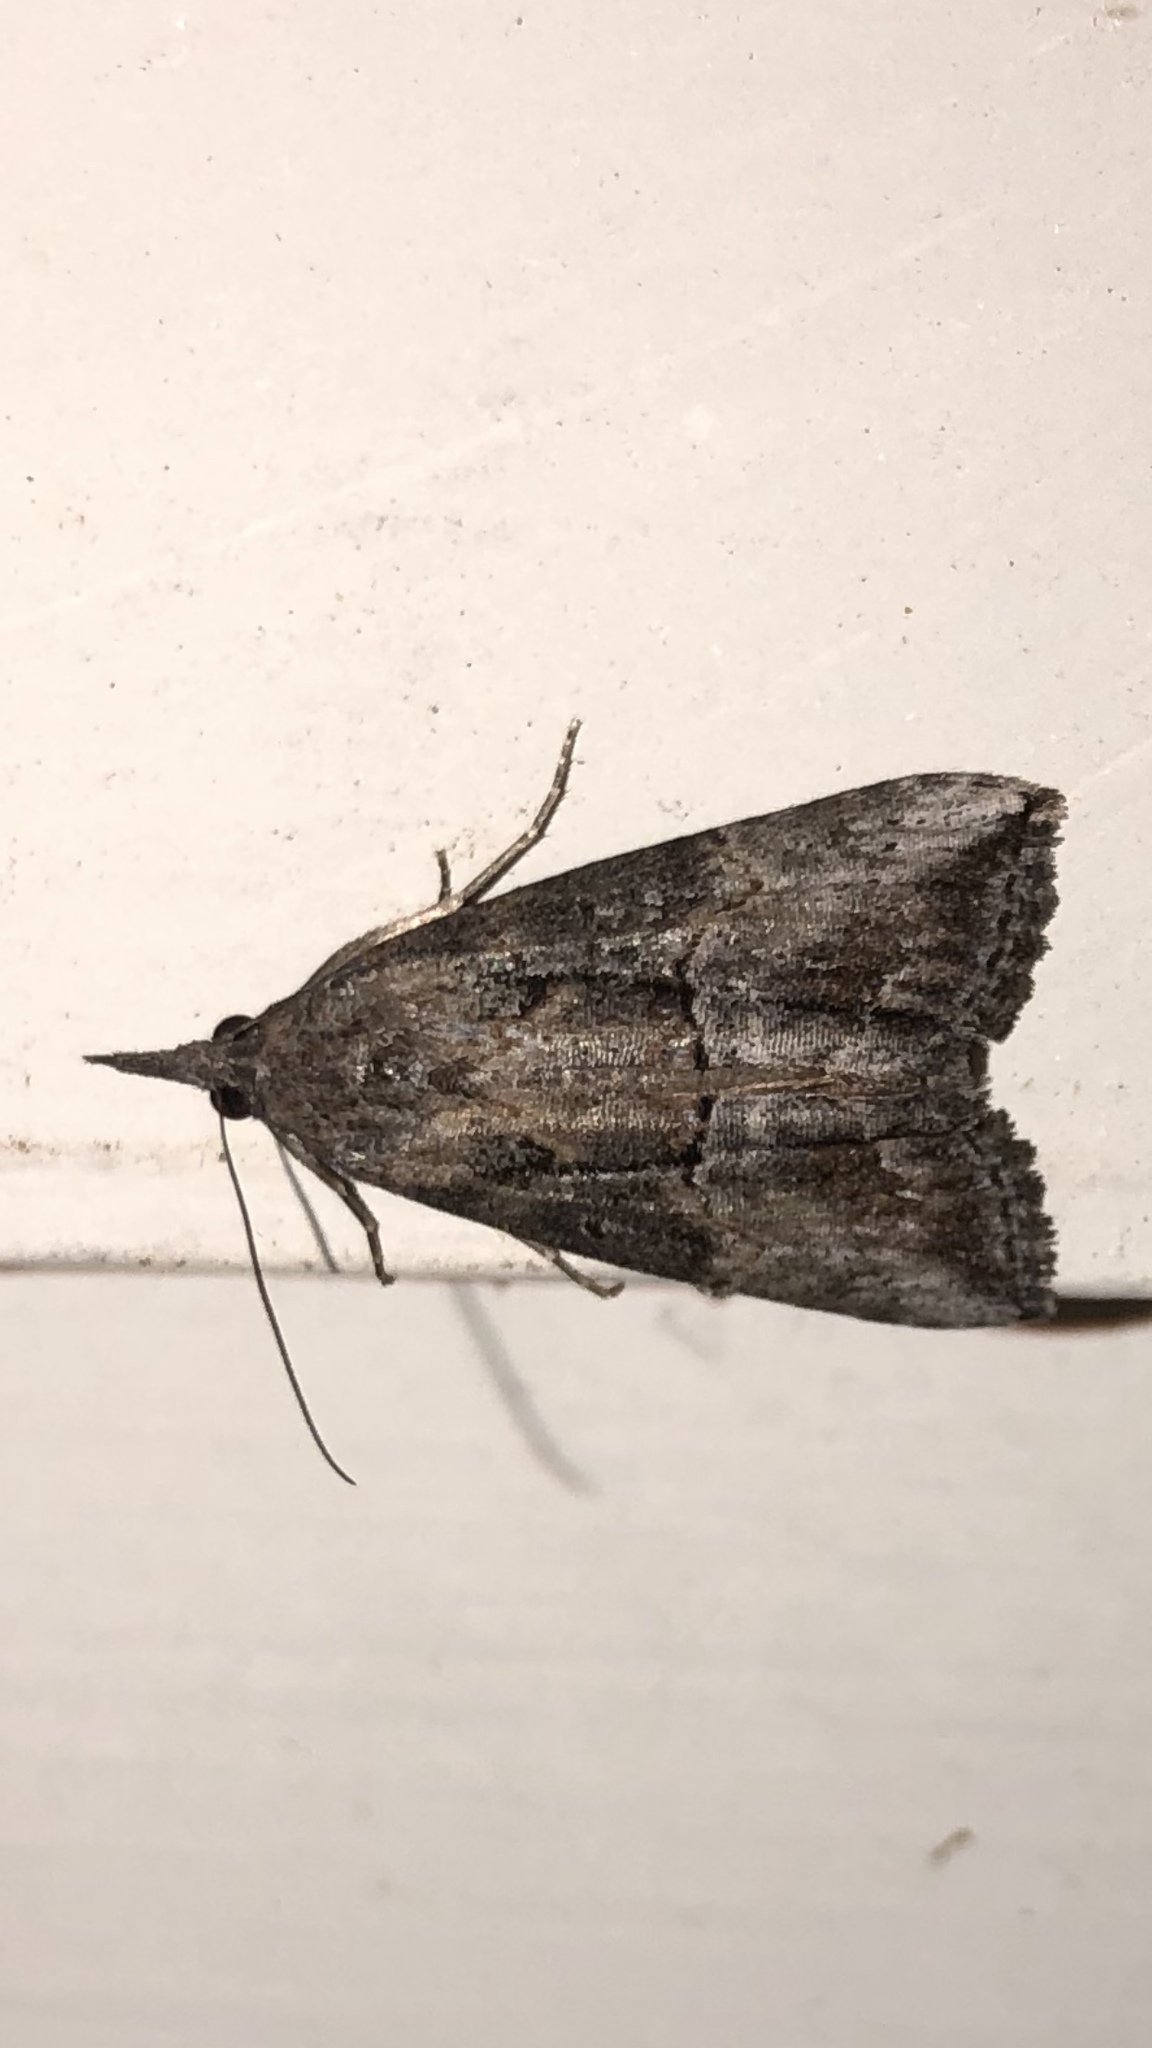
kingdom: Animalia
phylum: Arthropoda
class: Insecta
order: Lepidoptera
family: Erebidae
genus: Hypena
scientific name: Hypena scabra
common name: Green cloverworm
